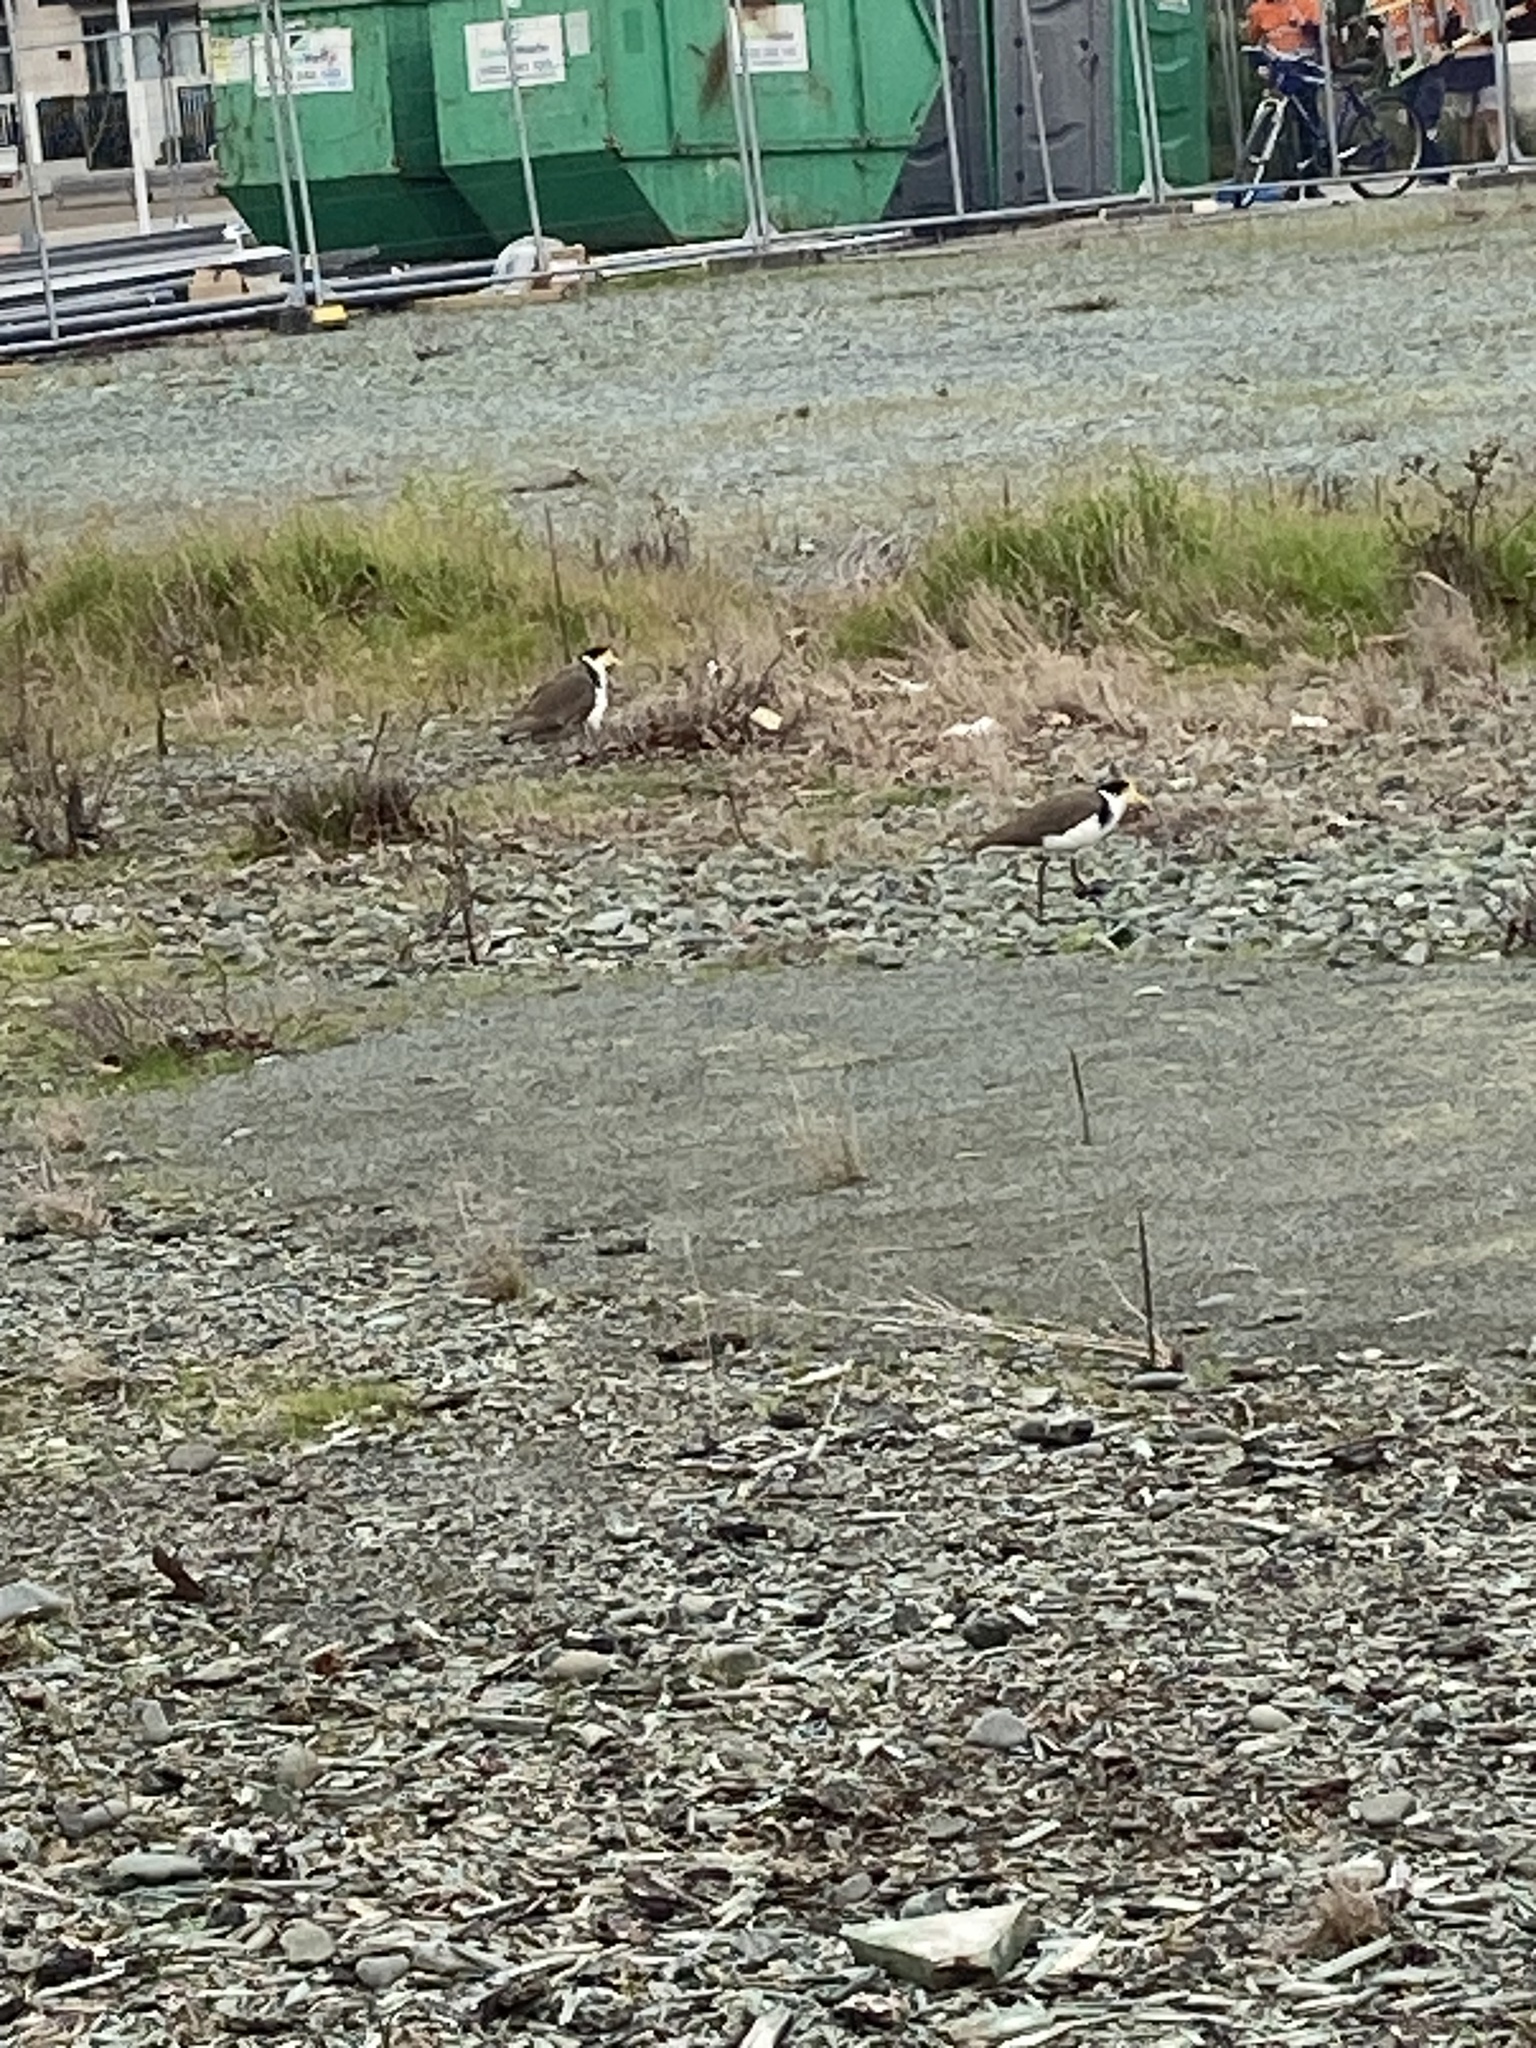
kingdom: Animalia
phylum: Chordata
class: Aves
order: Charadriiformes
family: Charadriidae
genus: Vanellus
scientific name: Vanellus miles
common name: Masked lapwing
